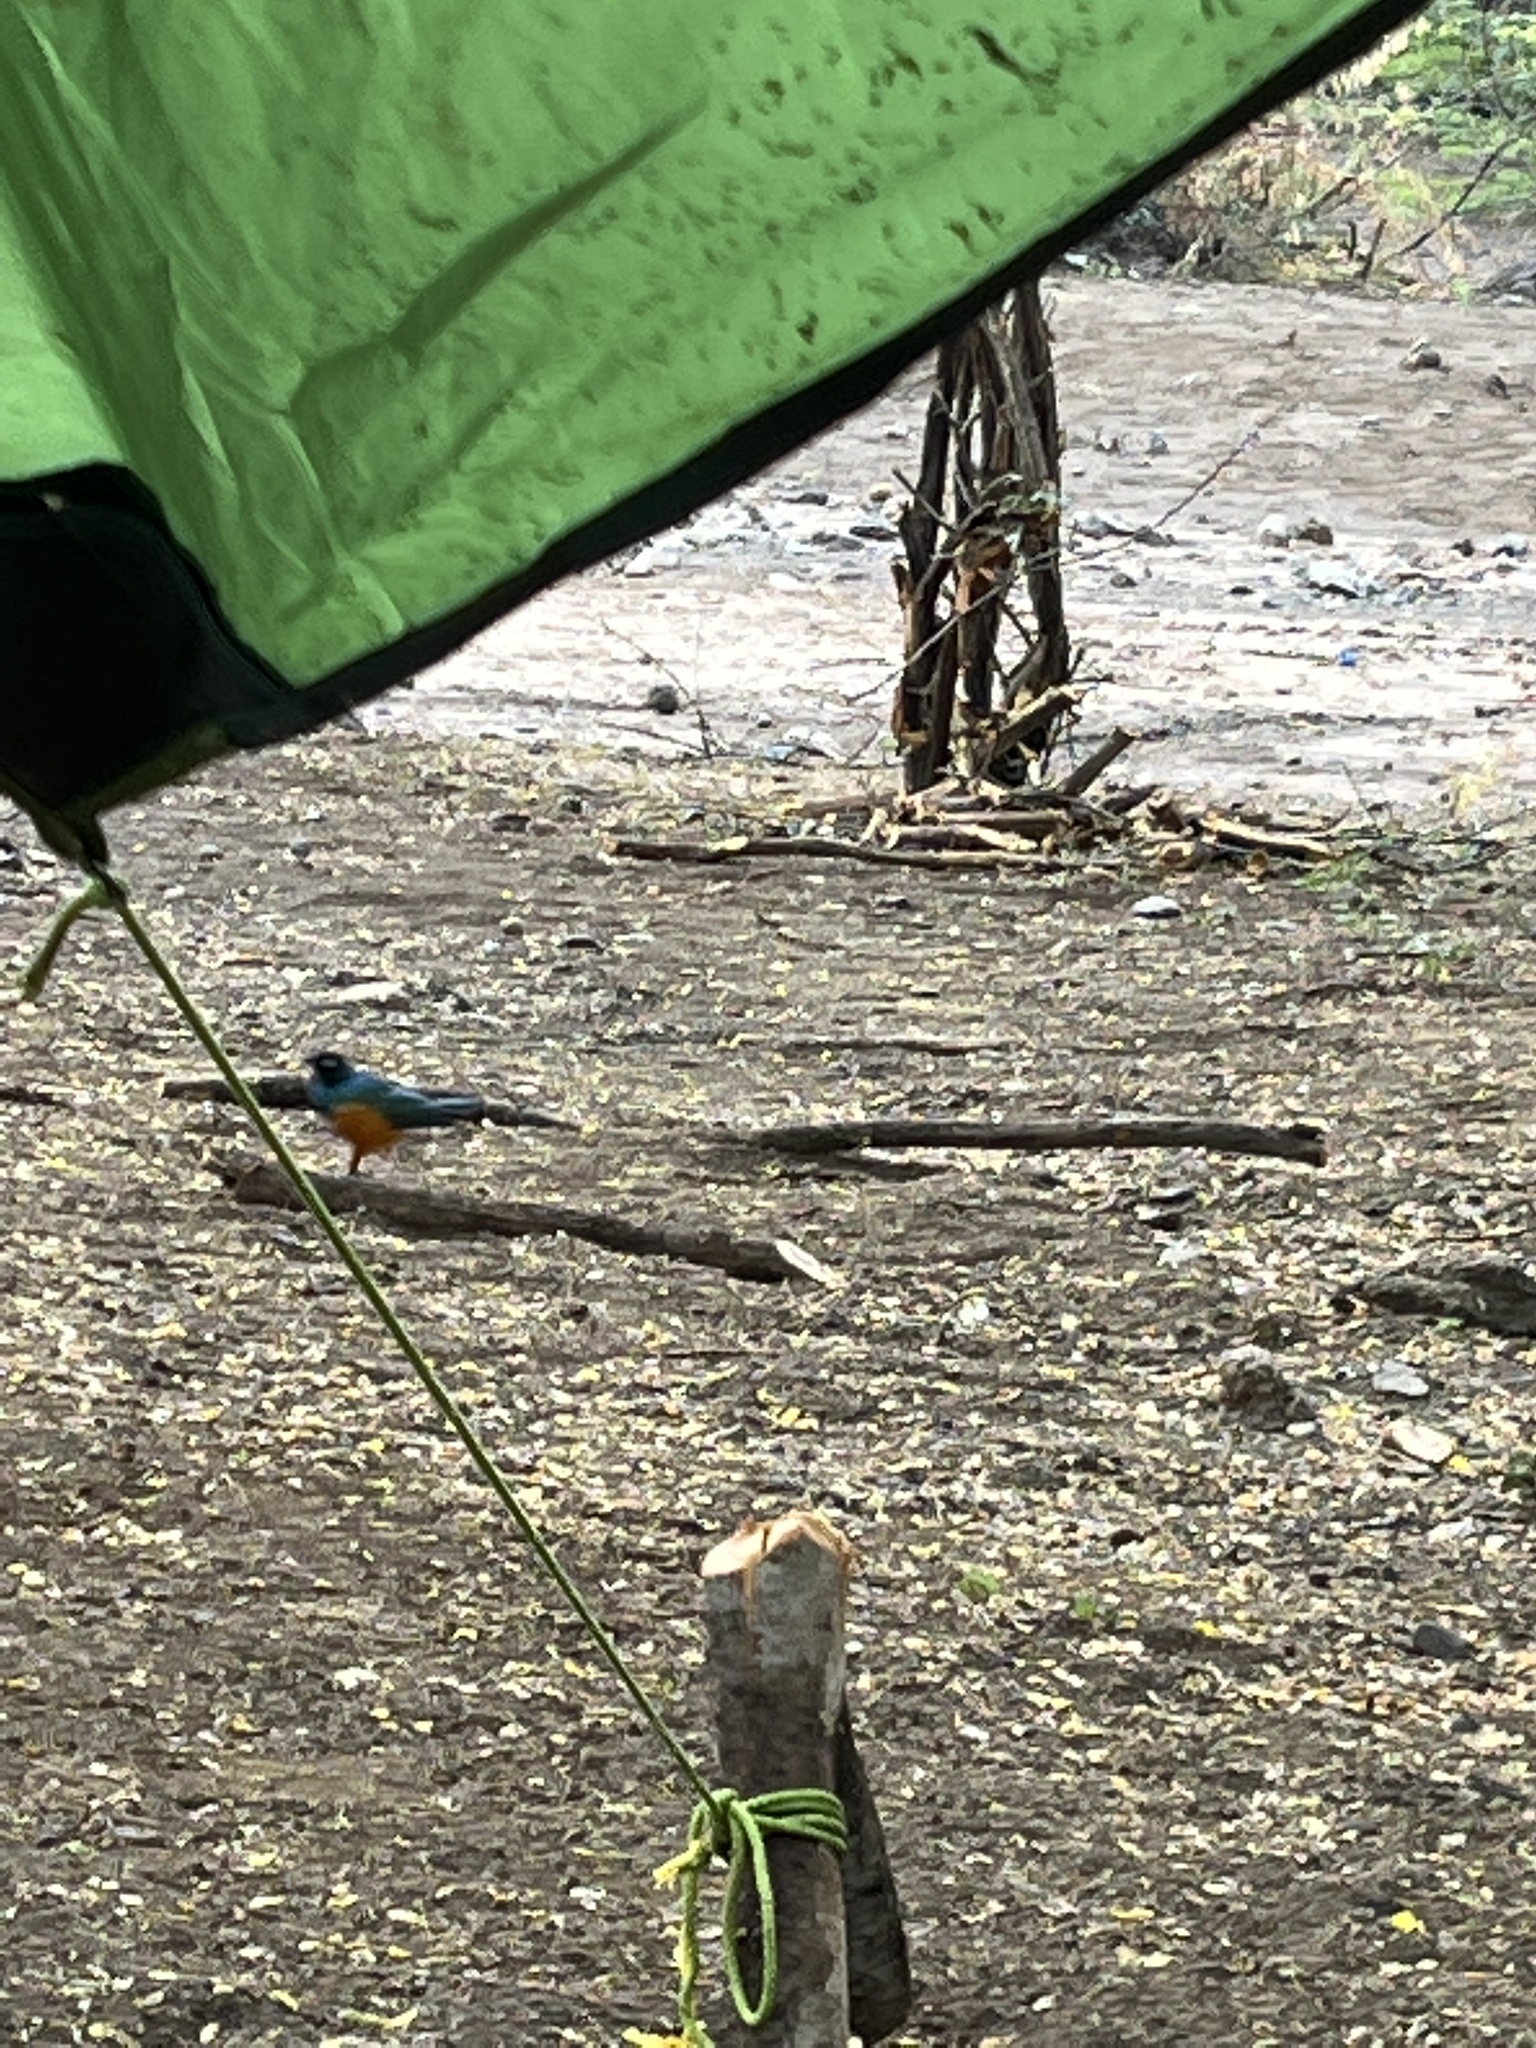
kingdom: Animalia
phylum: Chordata
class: Aves
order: Passeriformes
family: Sturnidae
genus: Lamprotornis
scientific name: Lamprotornis superbus
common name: Superb starling
